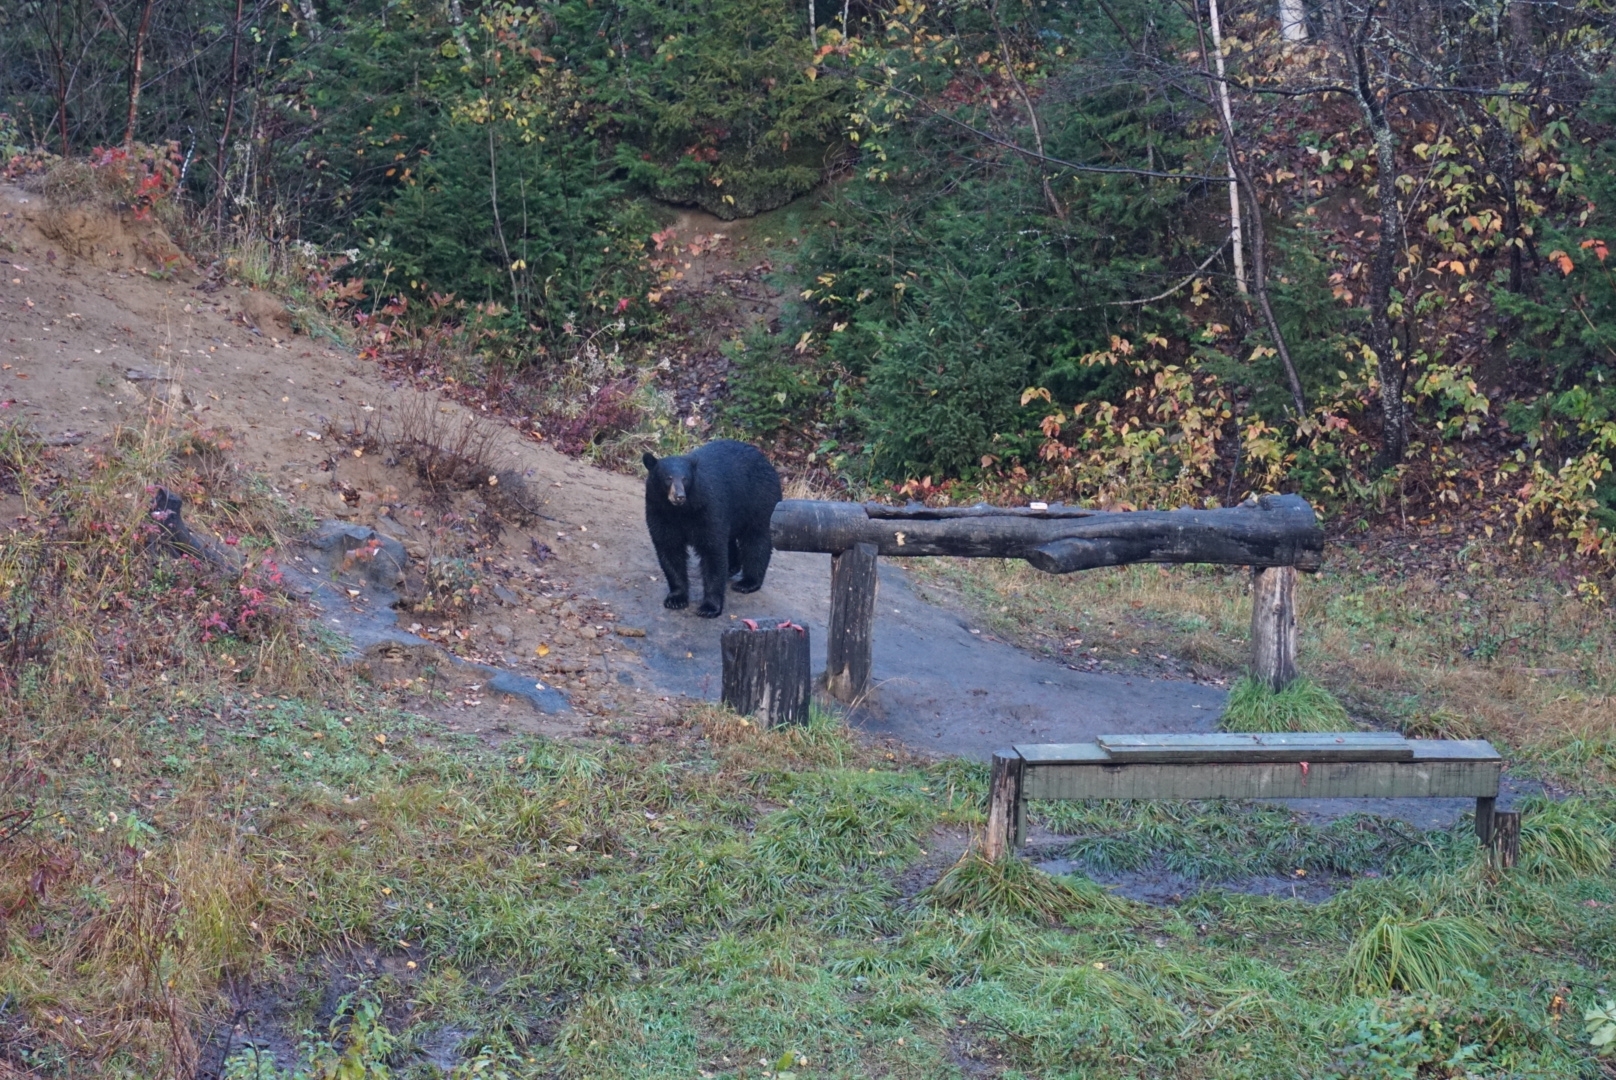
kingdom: Animalia
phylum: Chordata
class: Mammalia
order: Carnivora
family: Ursidae
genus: Ursus
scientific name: Ursus americanus
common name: American black bear
